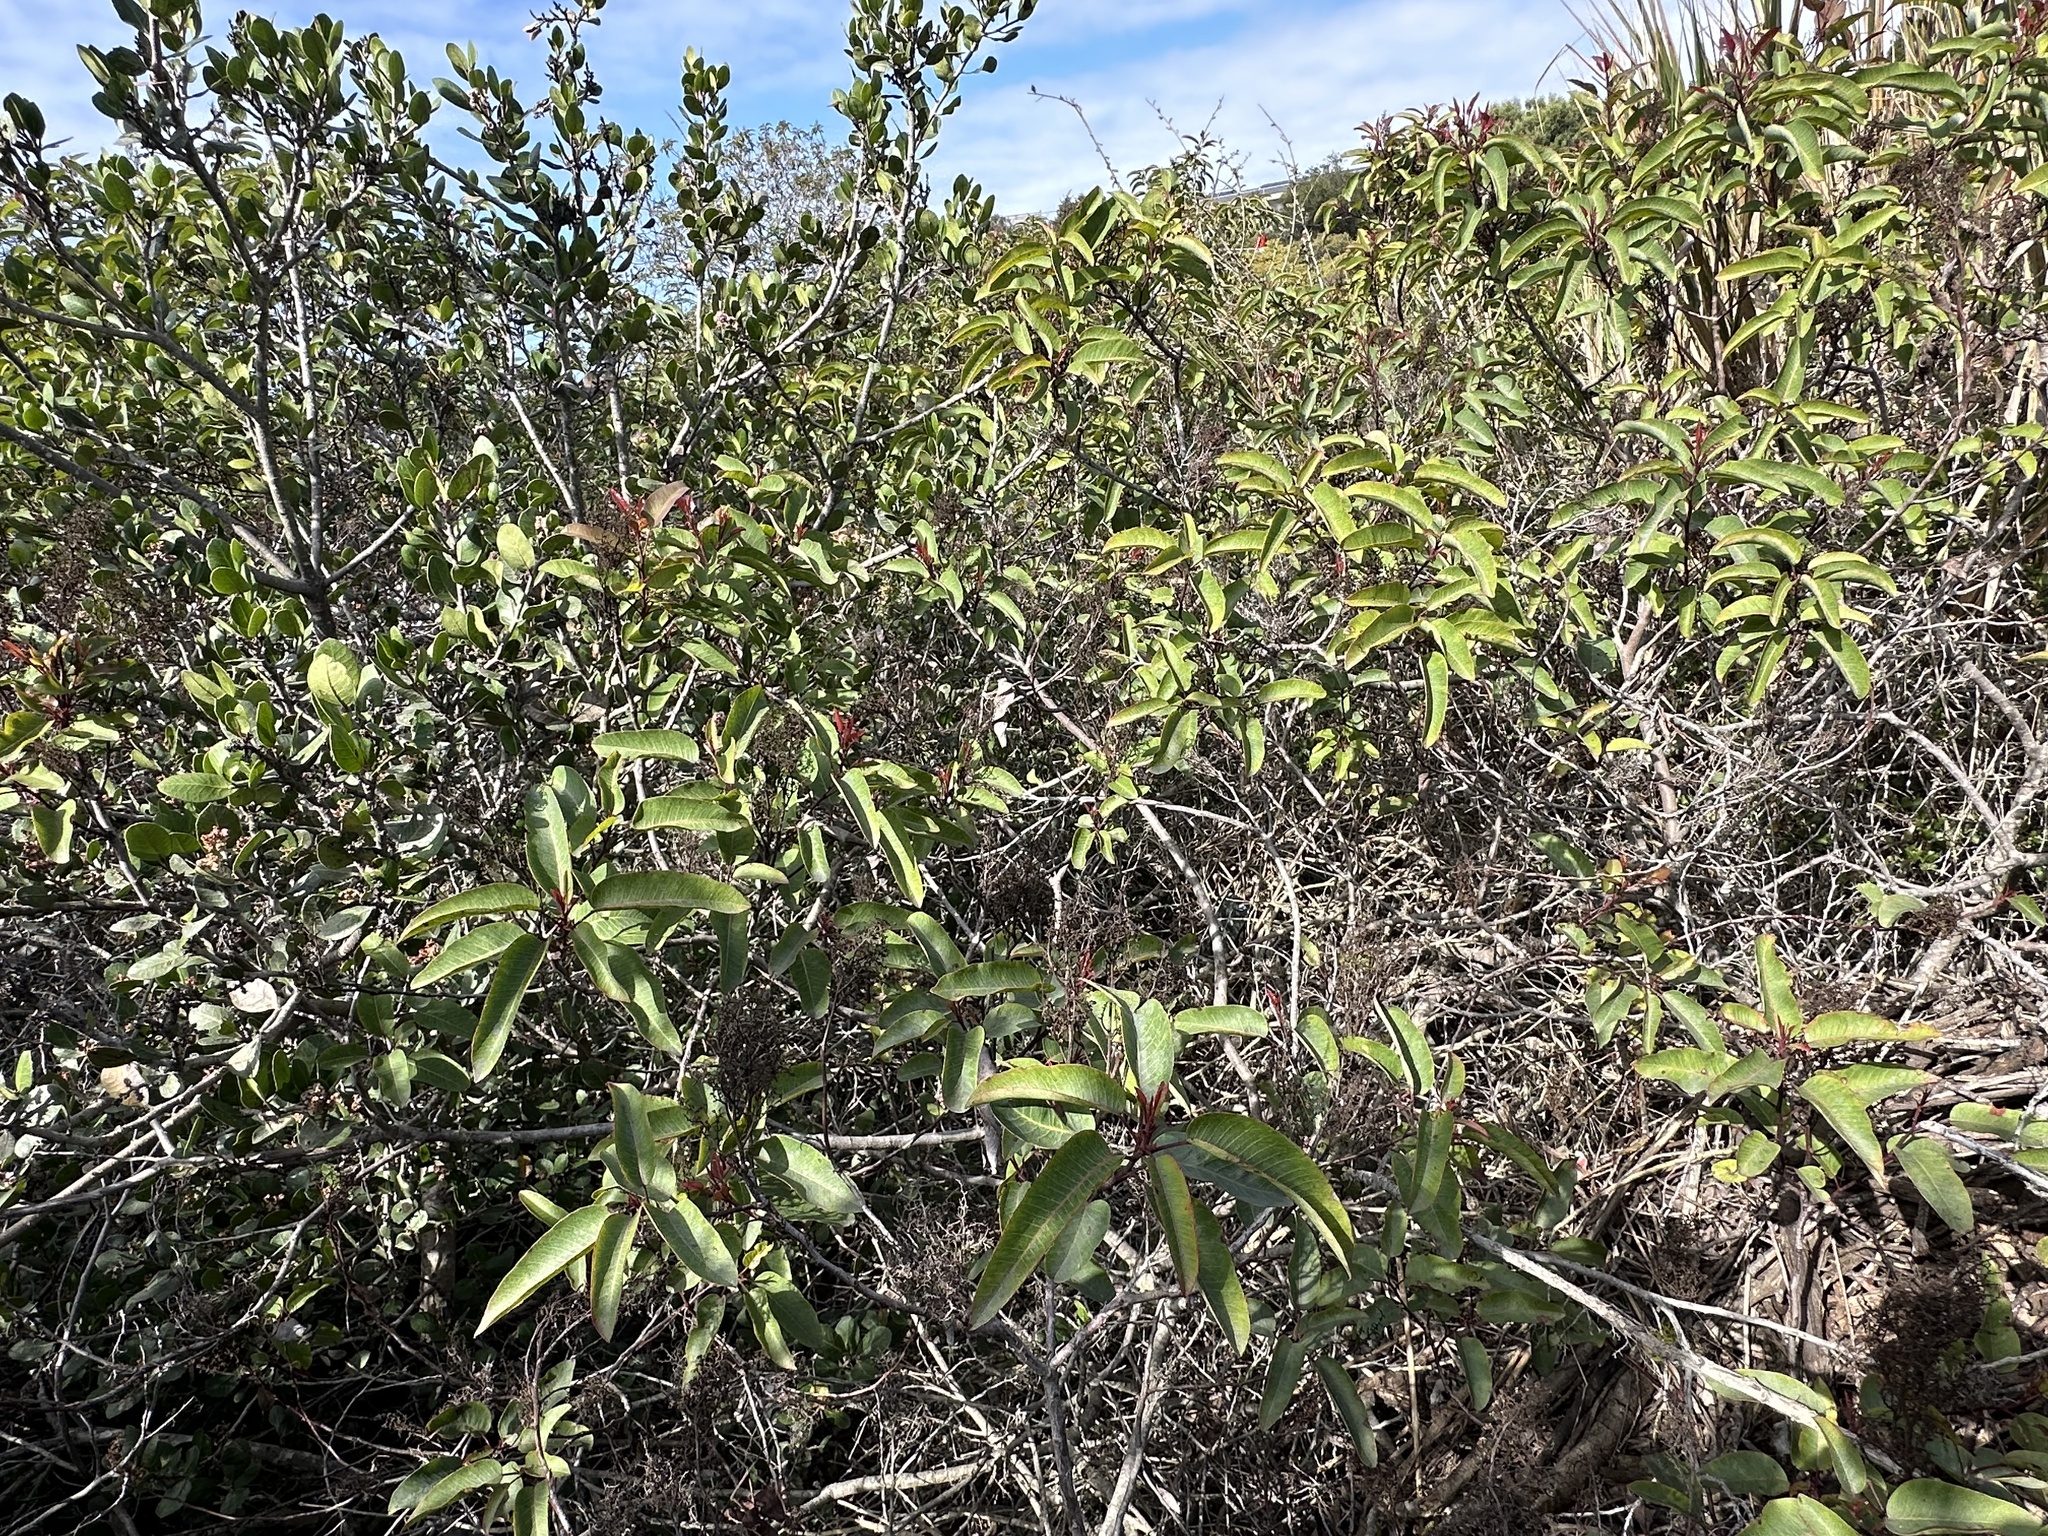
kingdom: Plantae
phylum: Tracheophyta
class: Magnoliopsida
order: Sapindales
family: Anacardiaceae
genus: Malosma
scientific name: Malosma laurina
